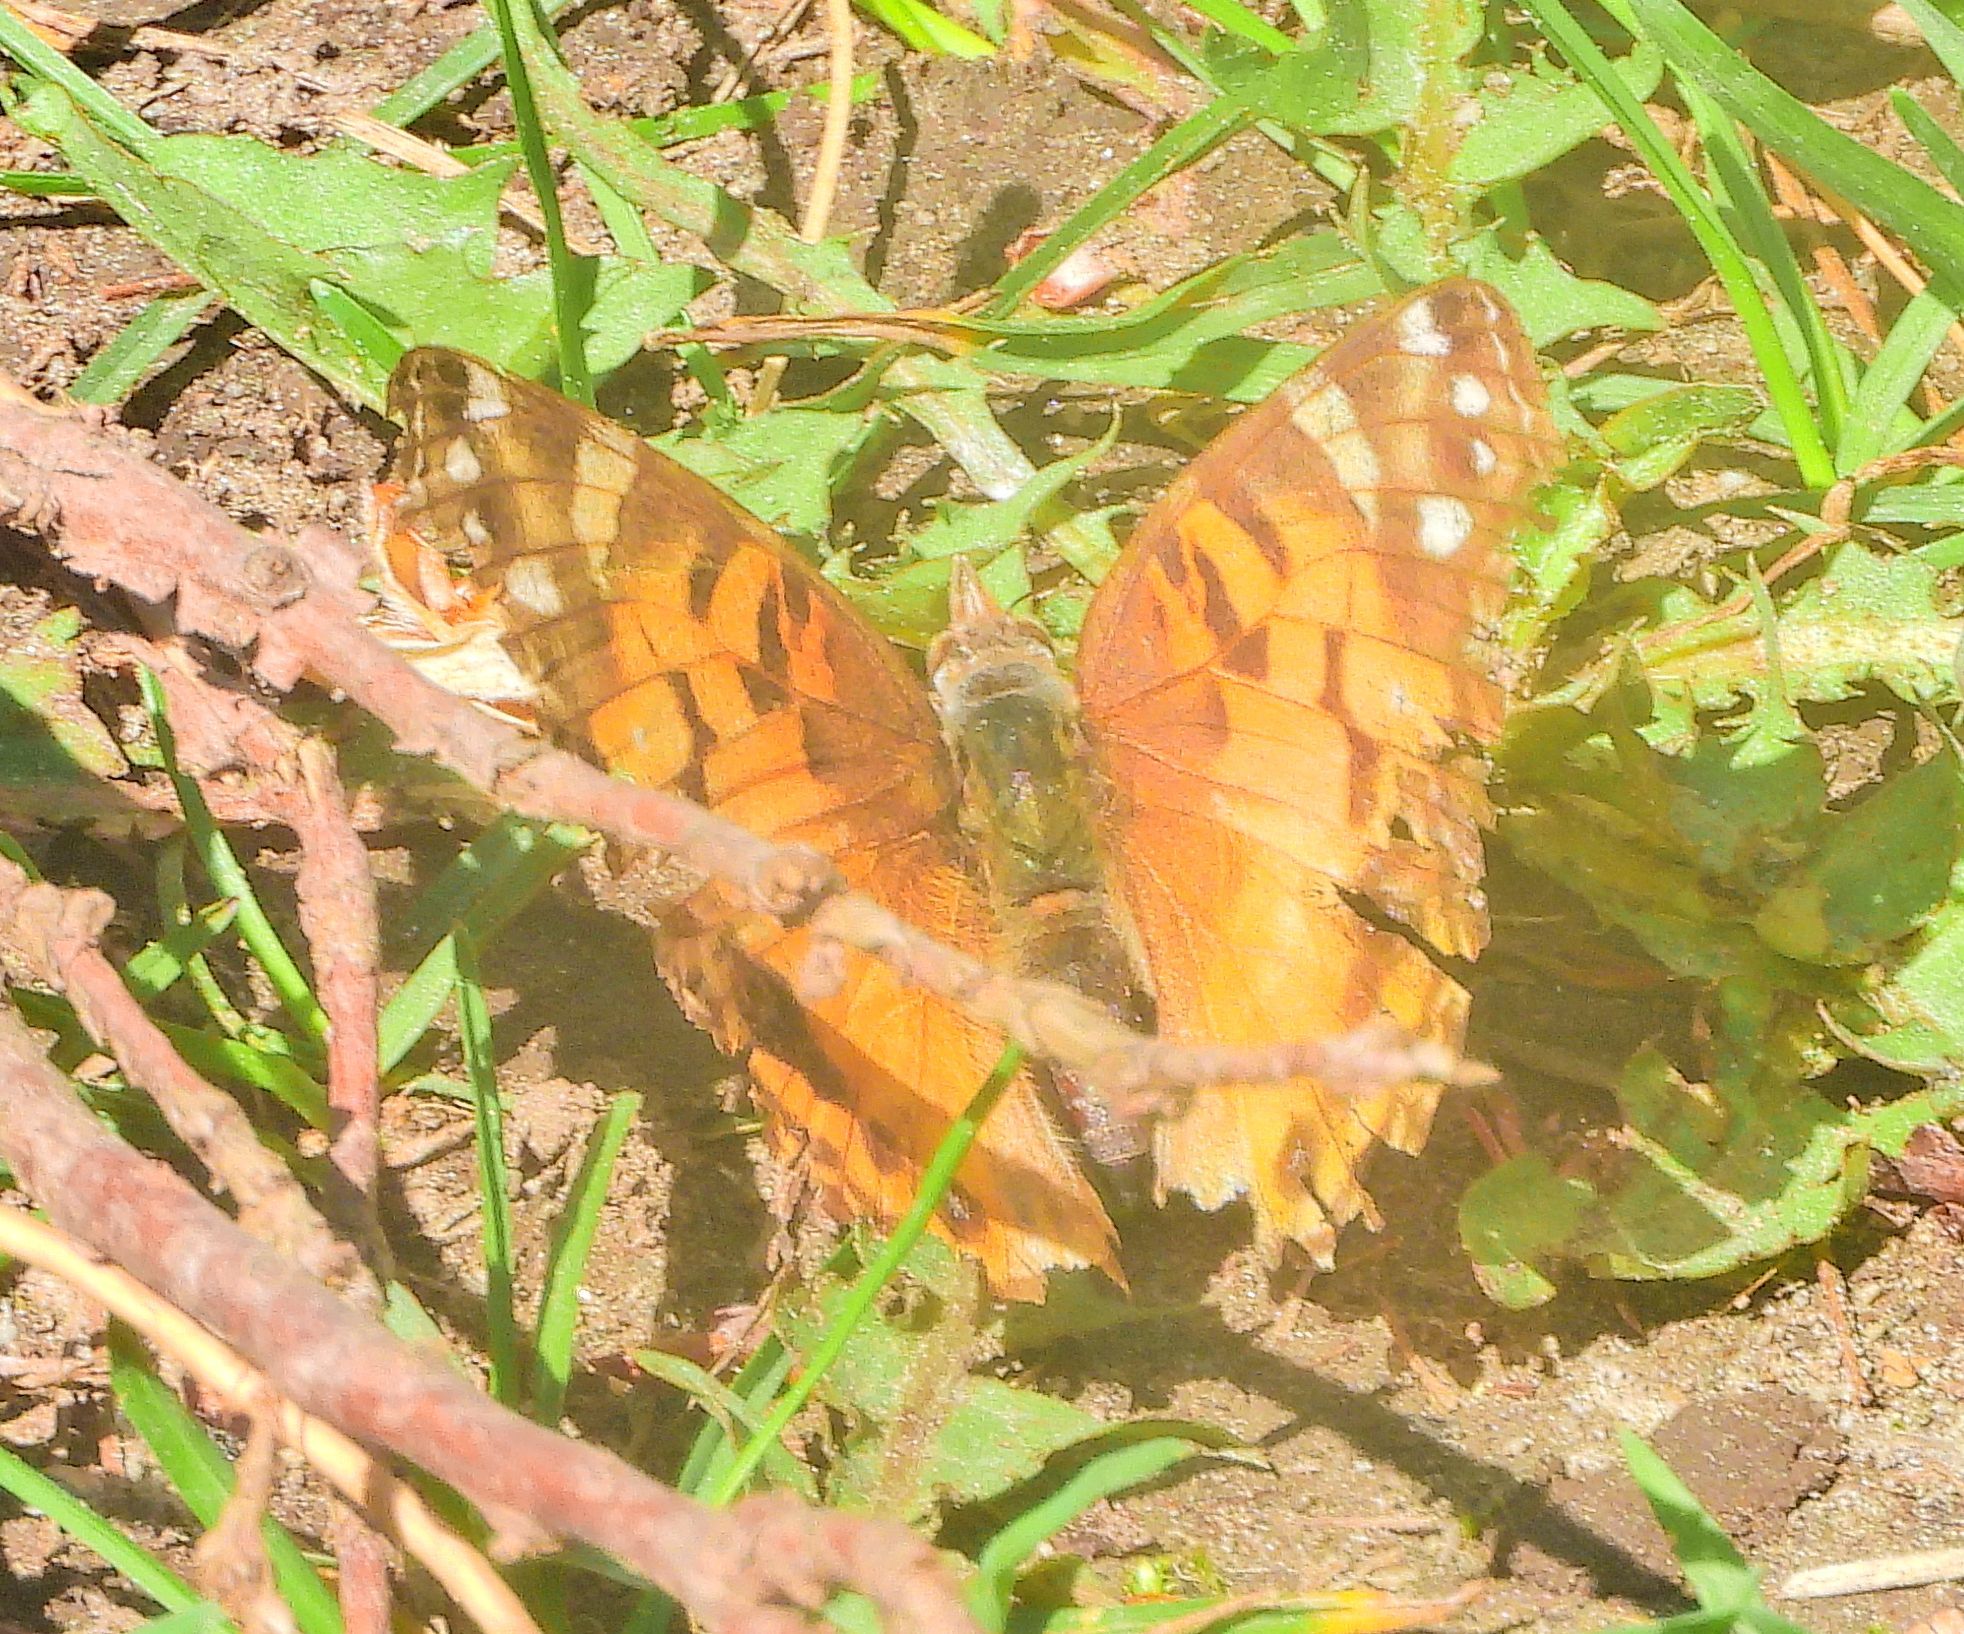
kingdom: Animalia
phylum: Arthropoda
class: Insecta
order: Lepidoptera
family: Nymphalidae
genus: Vanessa
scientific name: Vanessa virginiensis
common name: American lady
